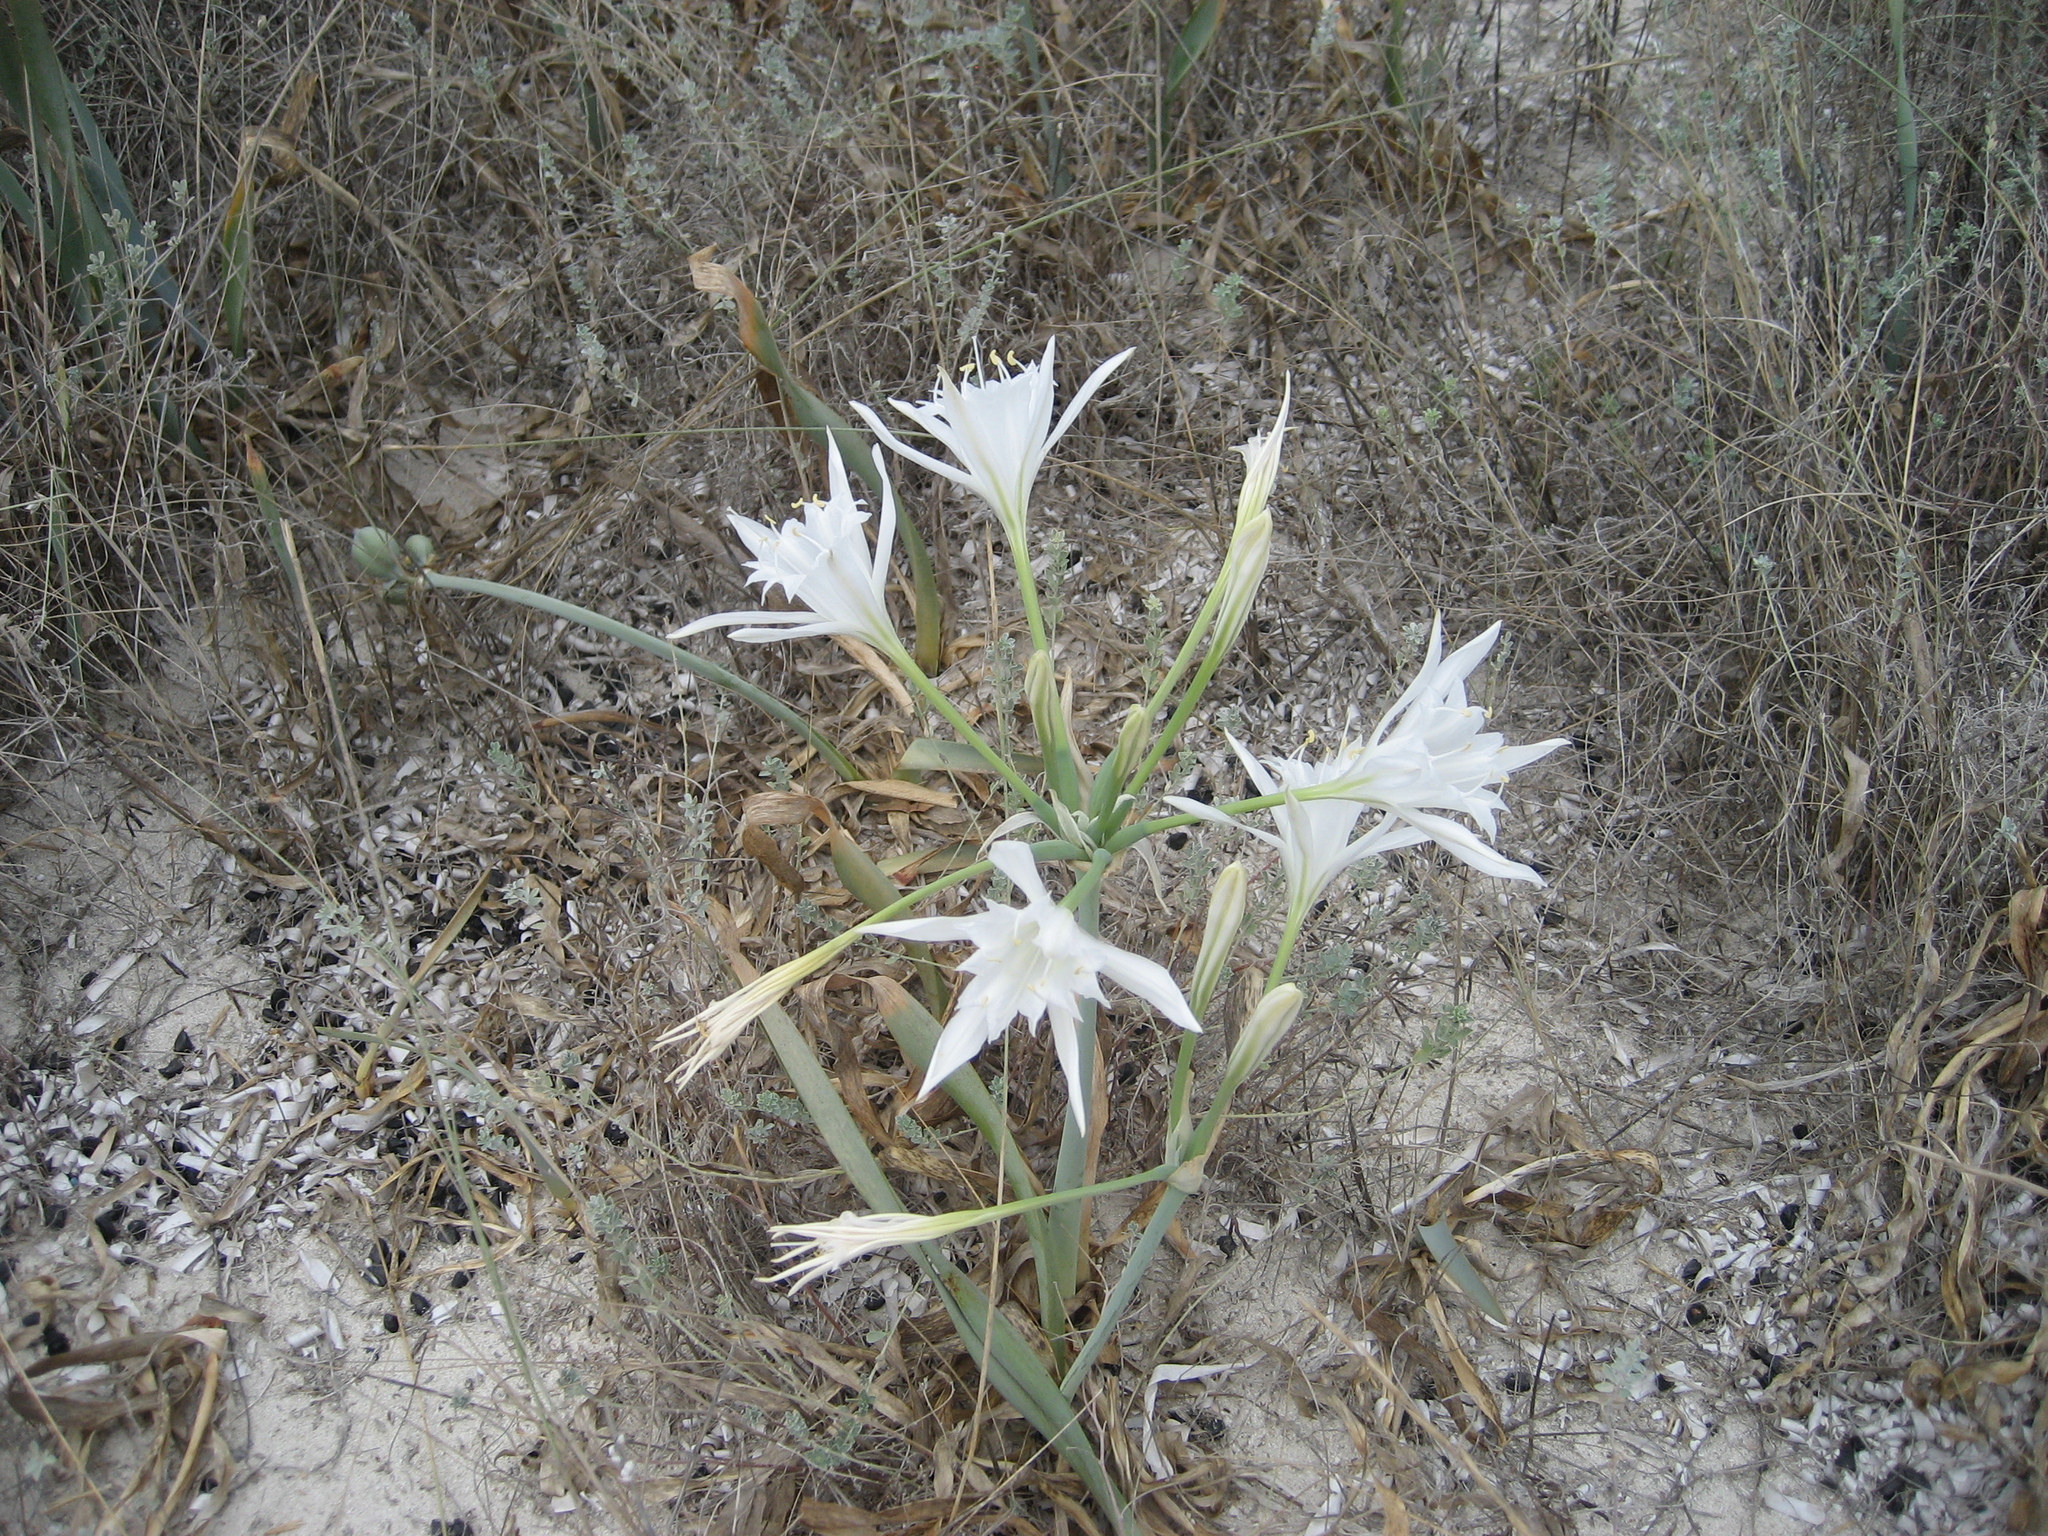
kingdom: Plantae
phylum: Tracheophyta
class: Liliopsida
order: Asparagales
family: Amaryllidaceae
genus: Pancratium
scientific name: Pancratium maritimum
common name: Sea-daffodil
